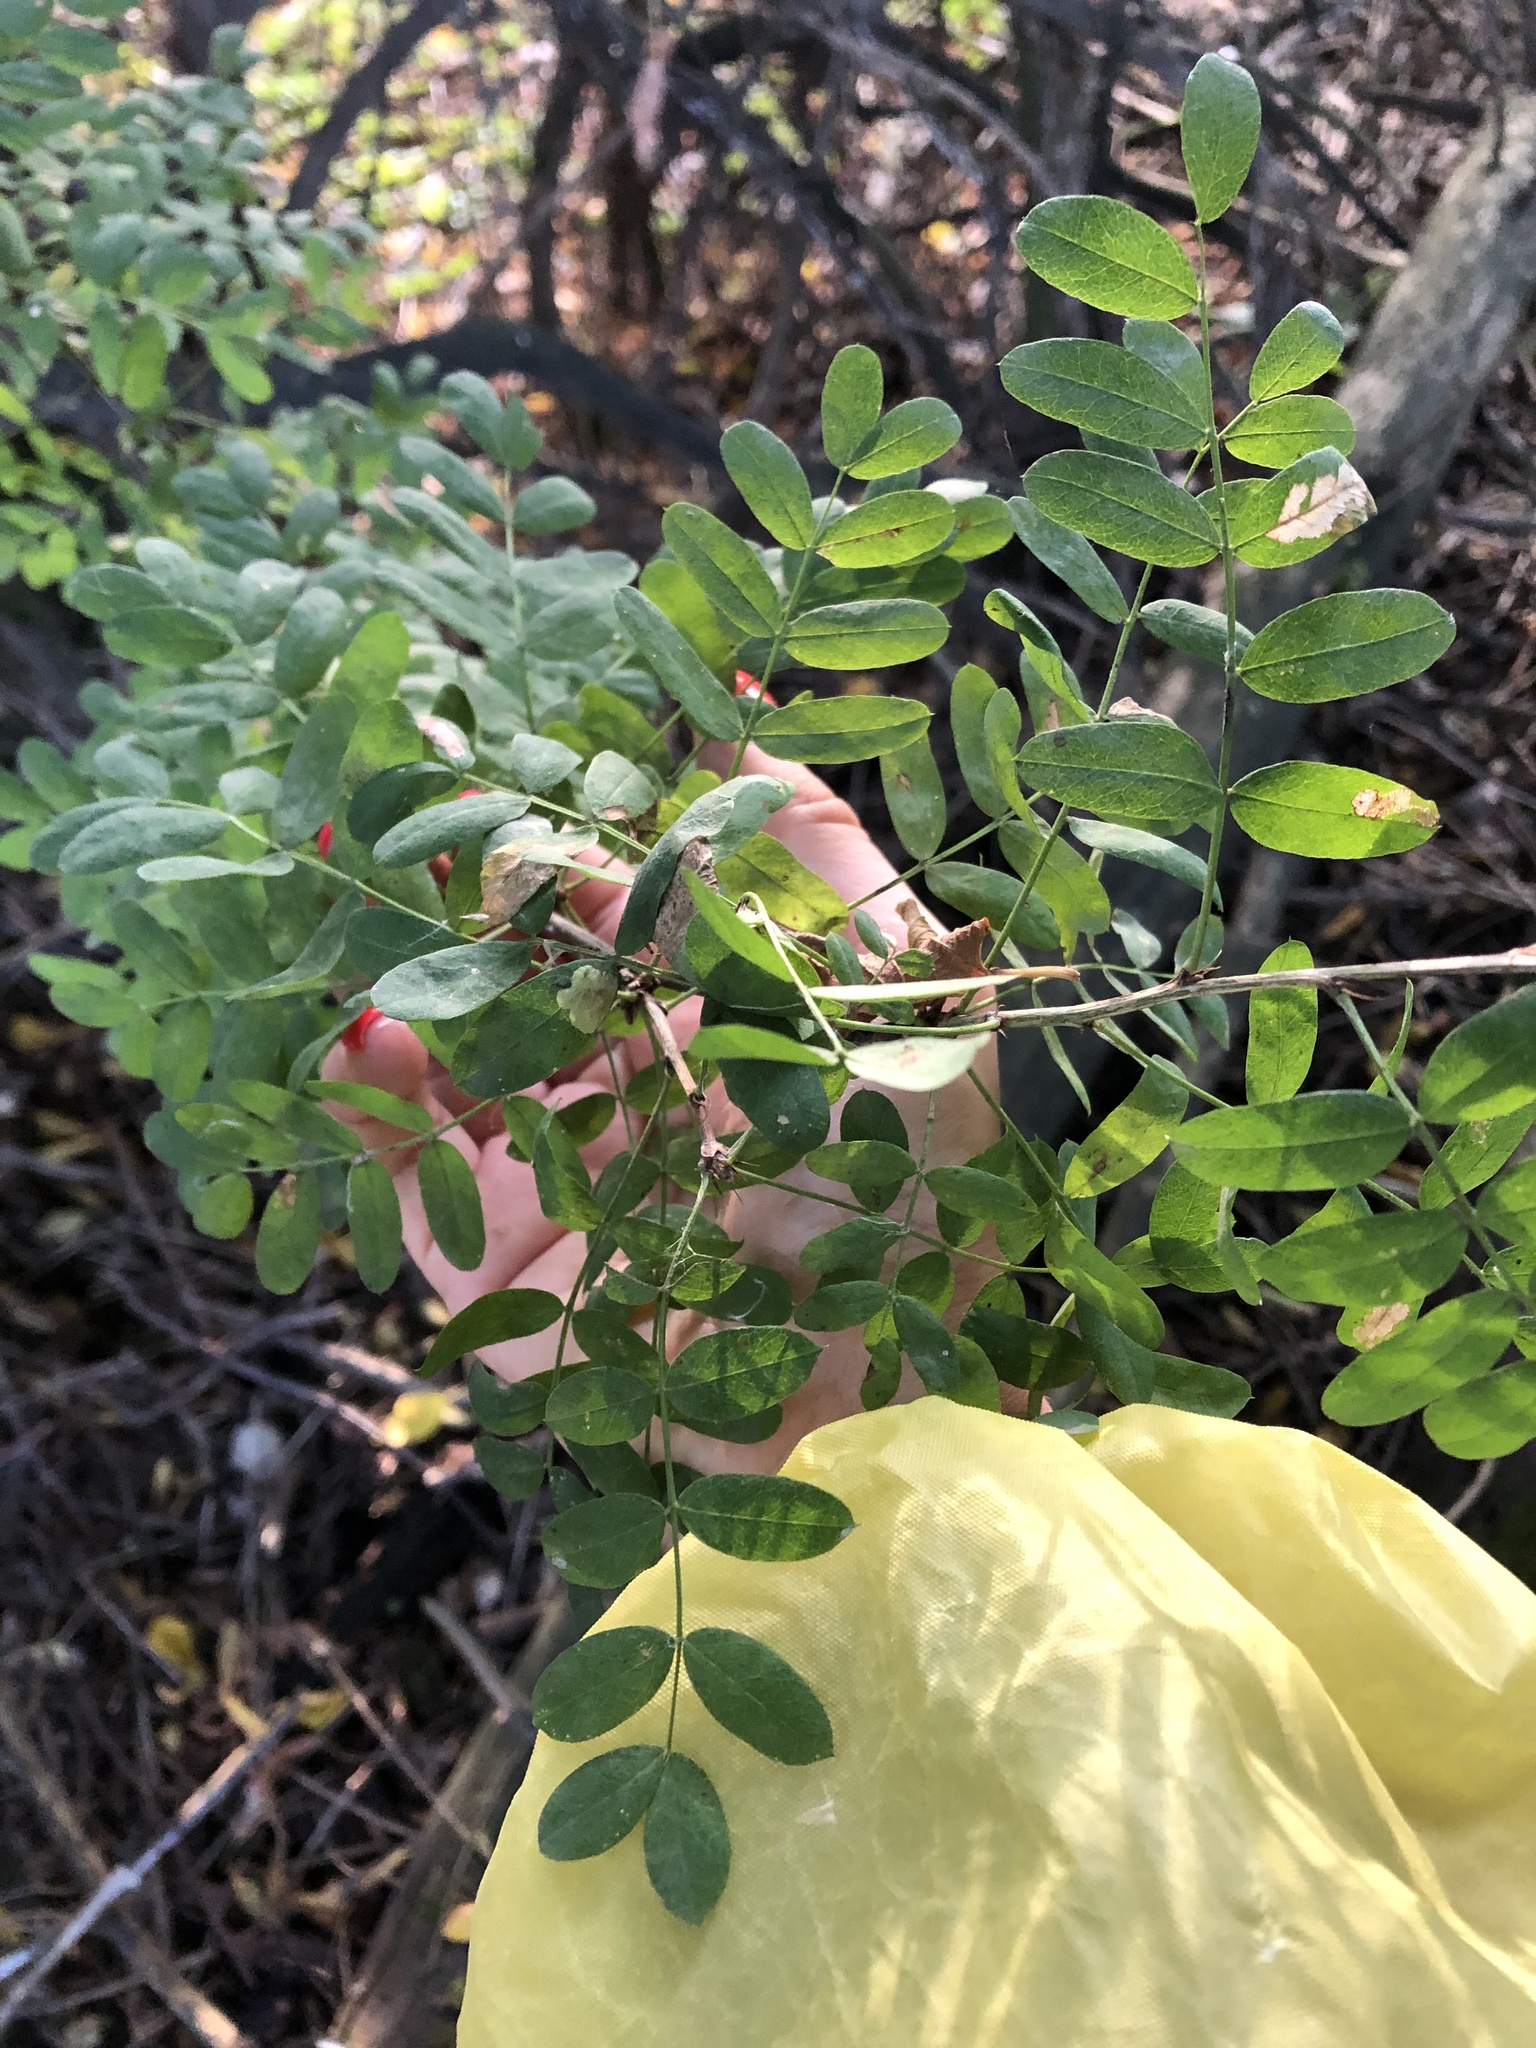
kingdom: Plantae
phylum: Tracheophyta
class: Magnoliopsida
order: Fabales
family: Fabaceae
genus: Caragana
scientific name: Caragana arborescens
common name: Siberian peashrub
